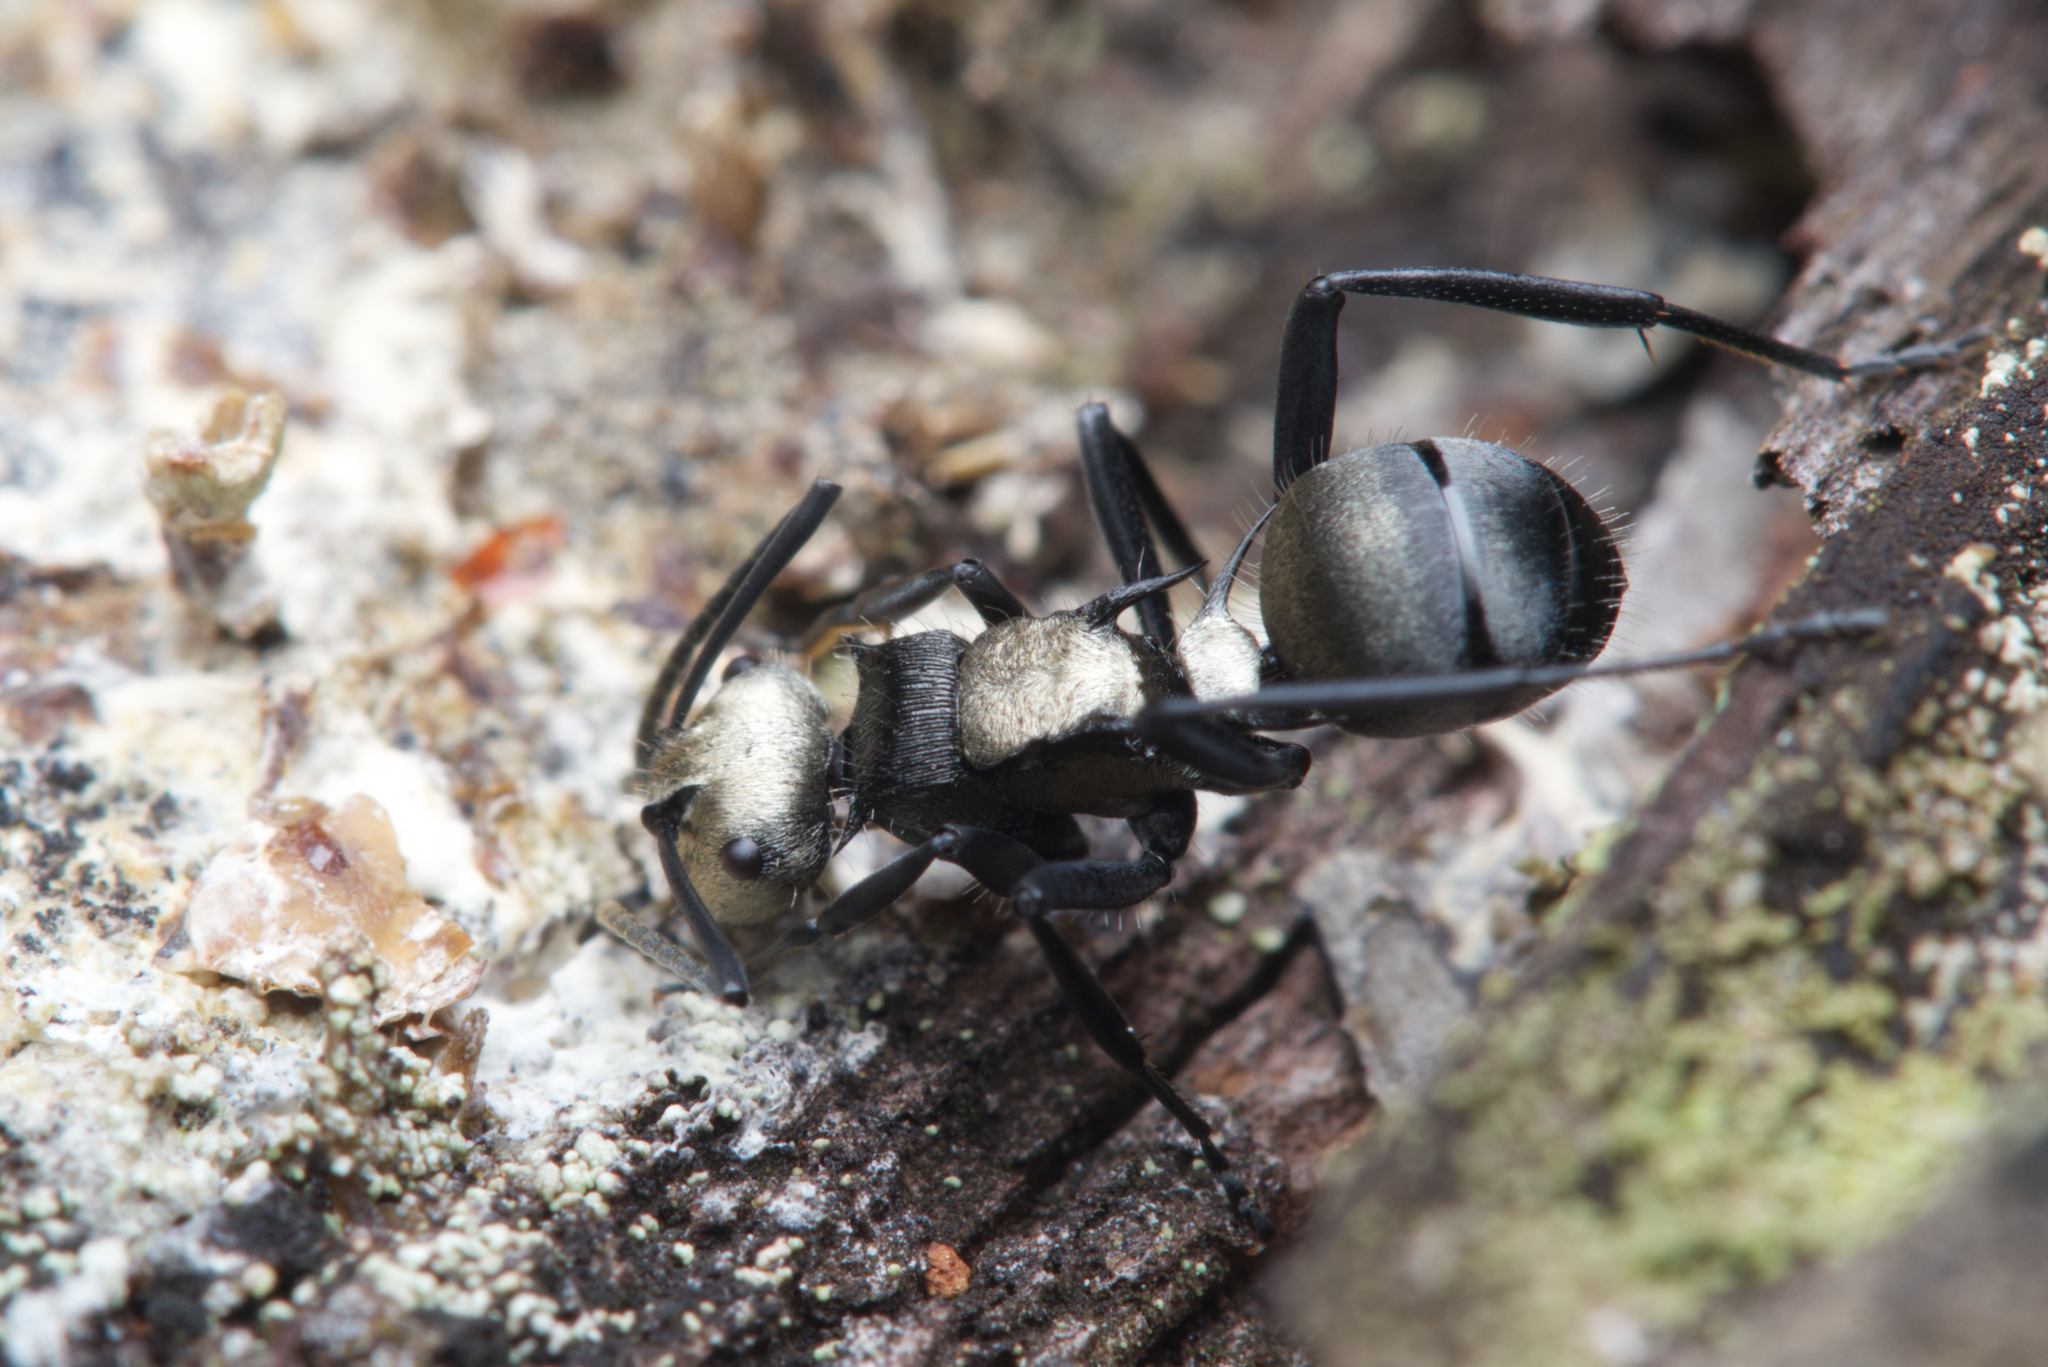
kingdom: Animalia
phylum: Arthropoda
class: Insecta
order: Hymenoptera
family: Formicidae
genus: Polyrhachis
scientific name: Polyrhachis daemeli
